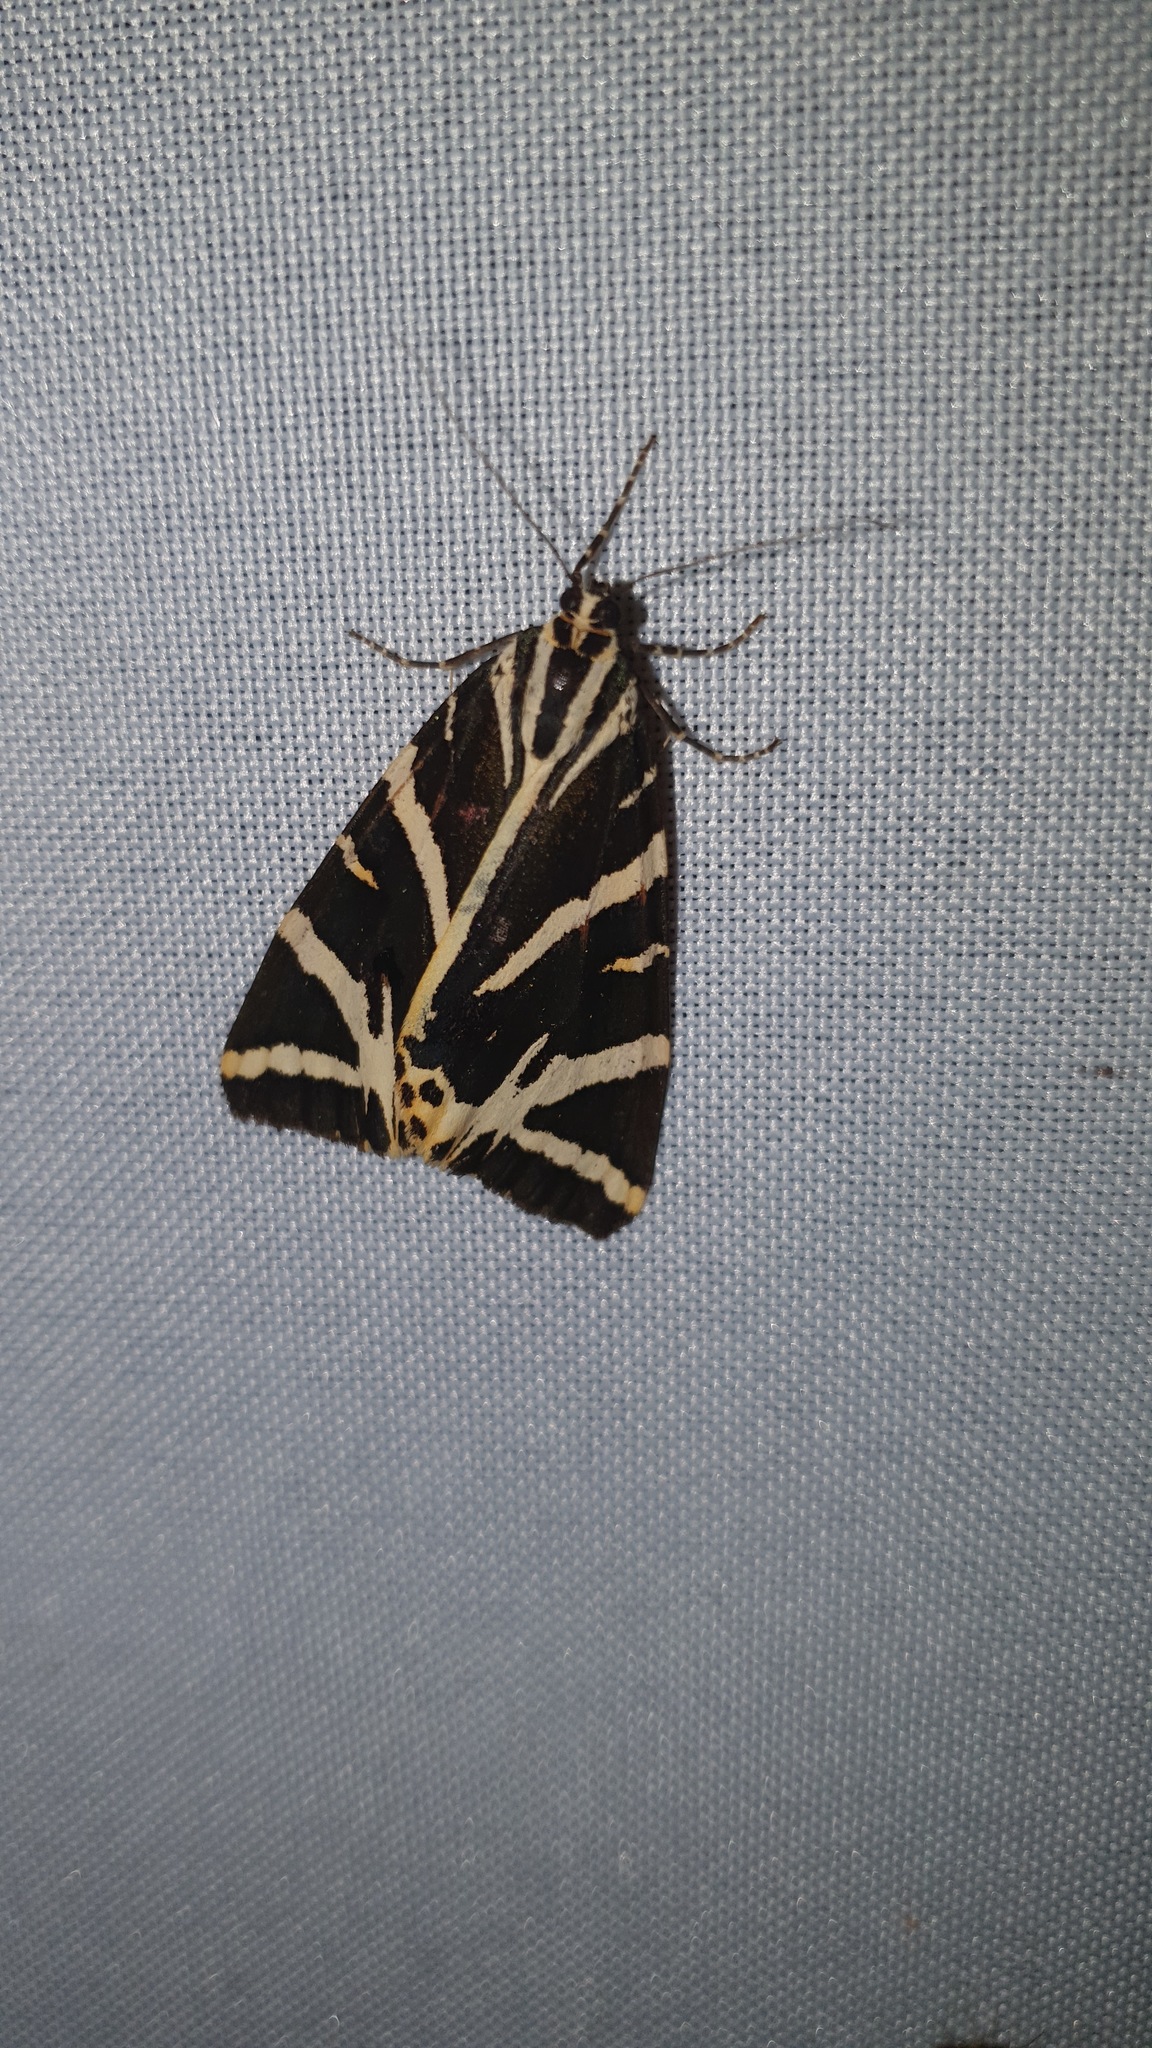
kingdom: Animalia
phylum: Arthropoda
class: Insecta
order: Lepidoptera
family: Erebidae
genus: Euplagia
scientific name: Euplagia quadripunctaria
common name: Jersey tiger
